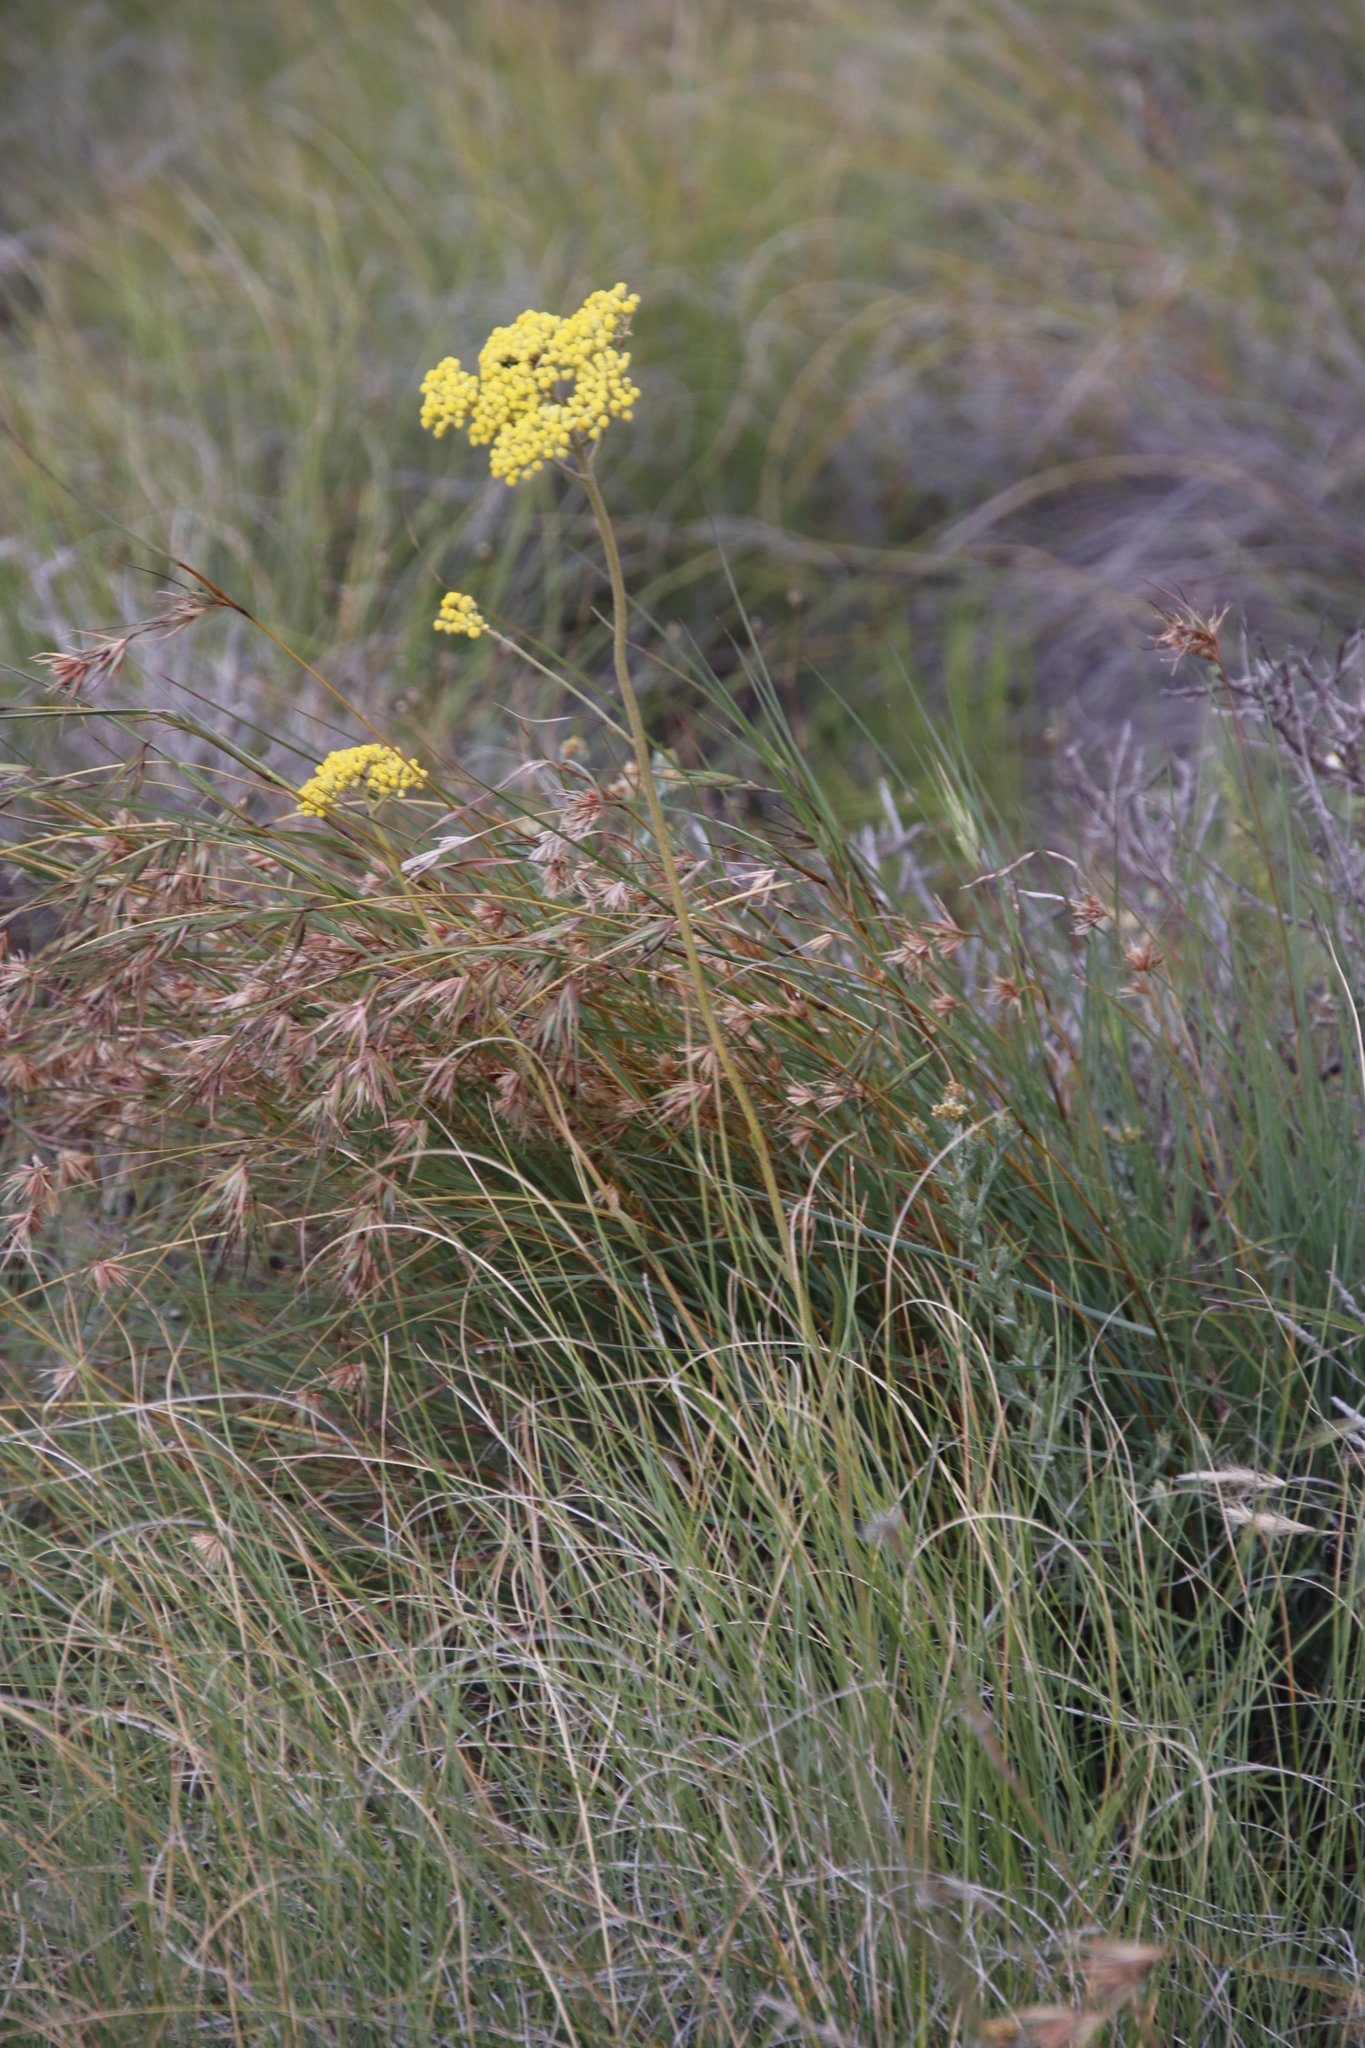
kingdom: Plantae
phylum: Tracheophyta
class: Liliopsida
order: Poales
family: Poaceae
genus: Themeda
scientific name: Themeda triandra
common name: Kangaroo grass
